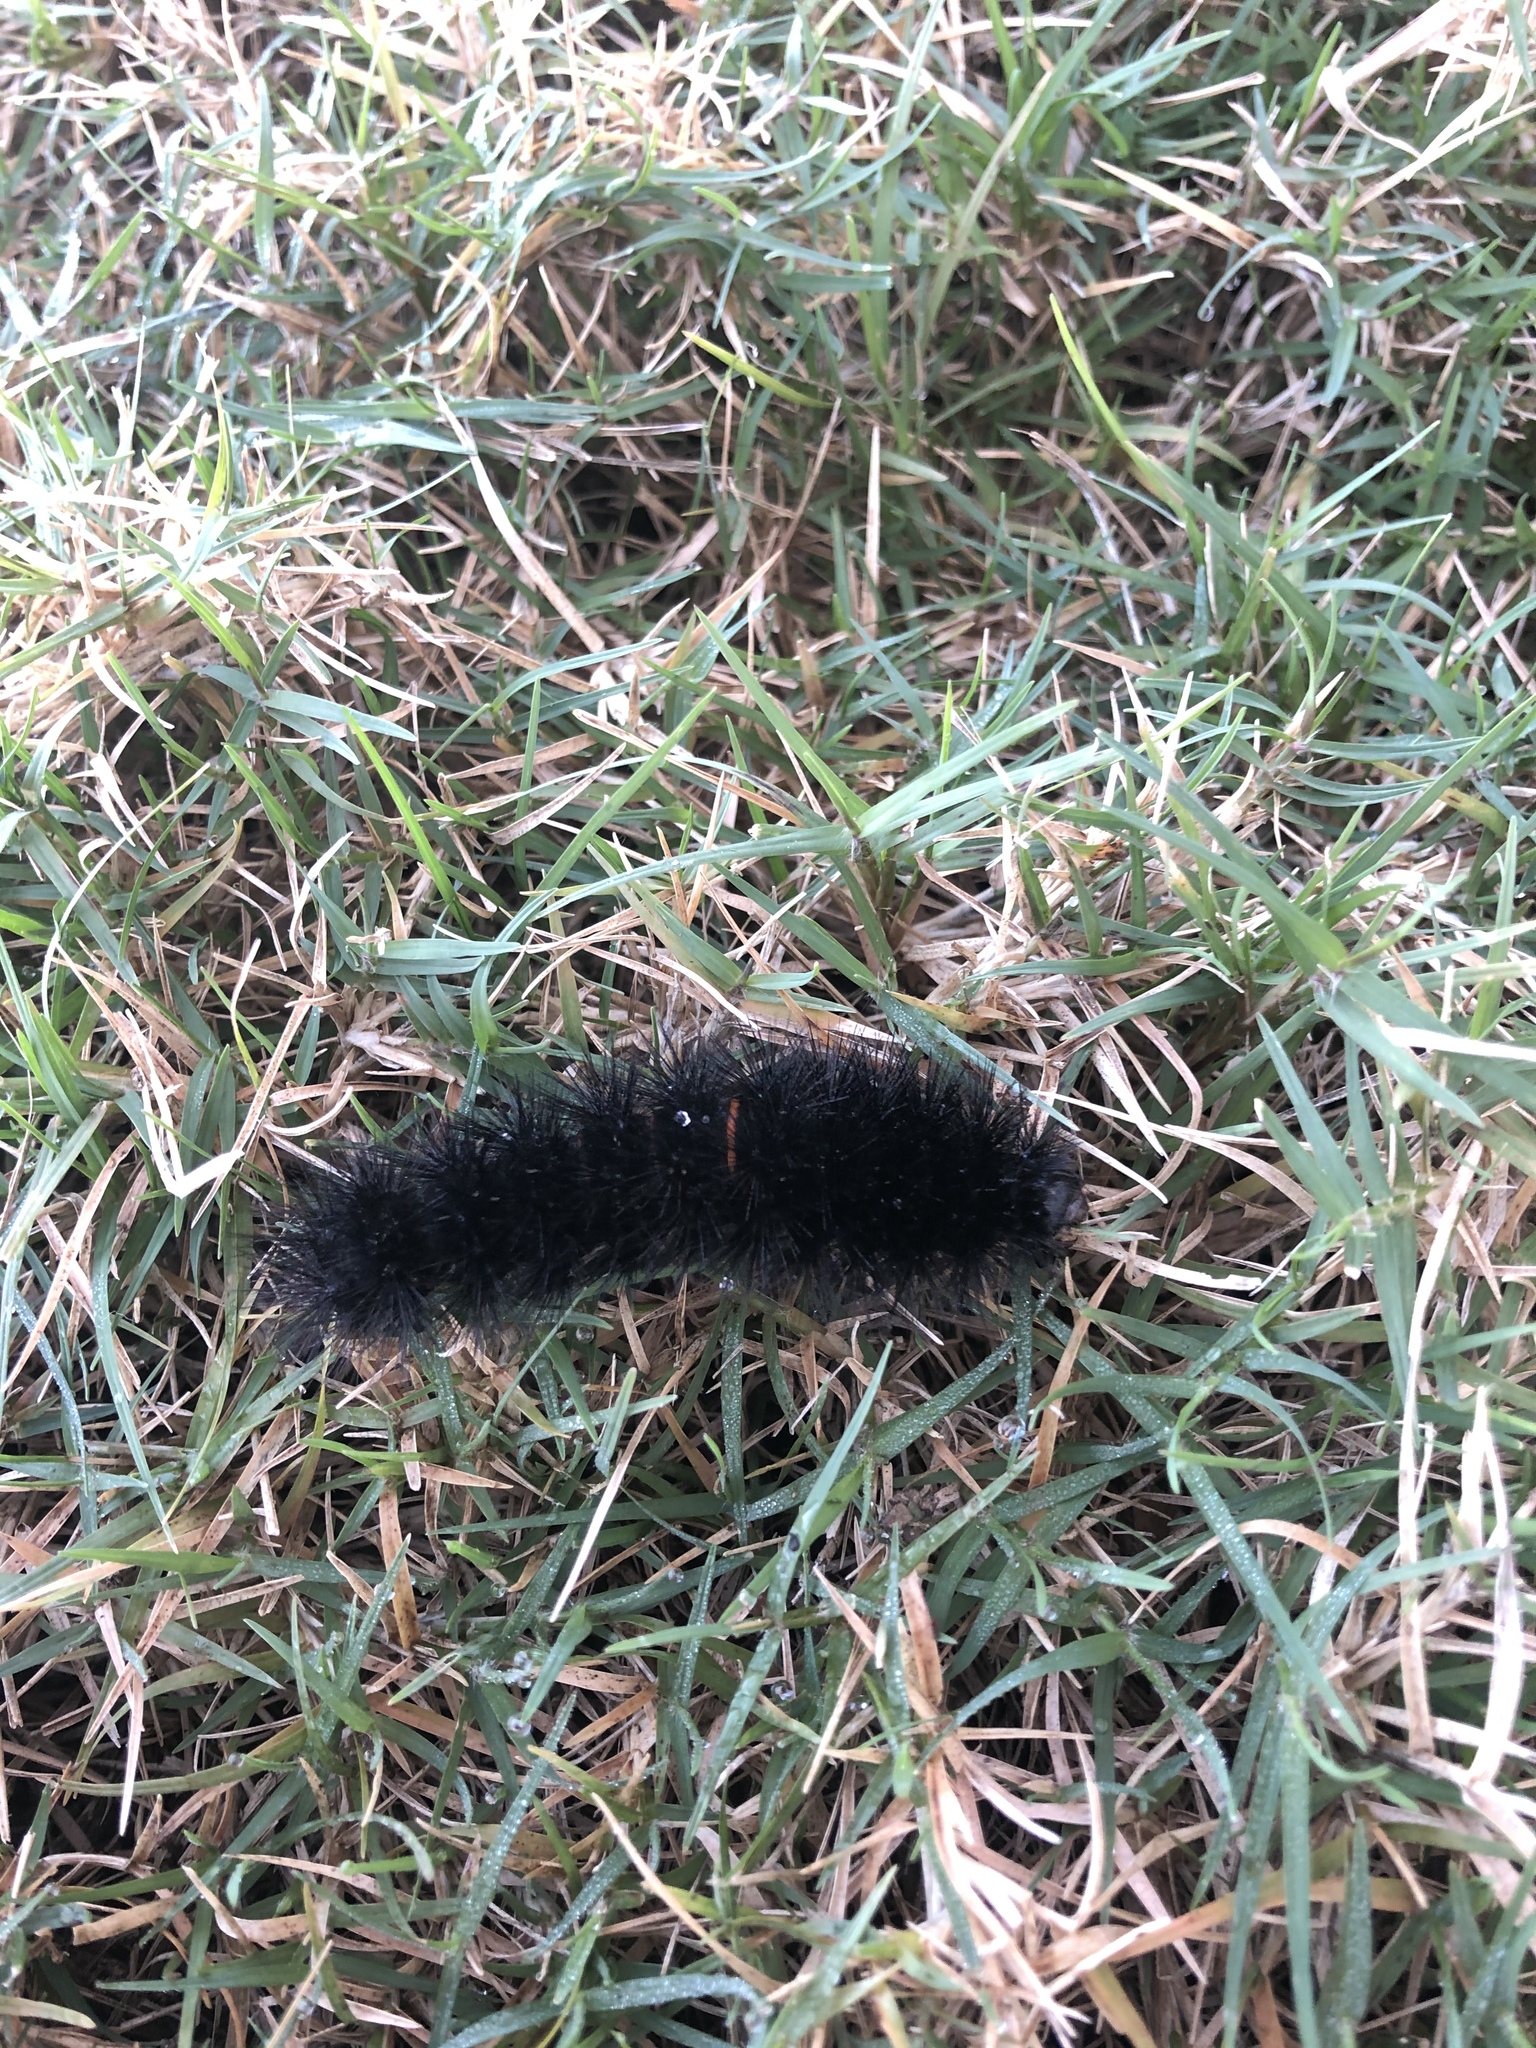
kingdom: Animalia
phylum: Arthropoda
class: Insecta
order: Lepidoptera
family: Erebidae
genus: Hypercompe
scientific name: Hypercompe scribonia
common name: Giant leopard moth
